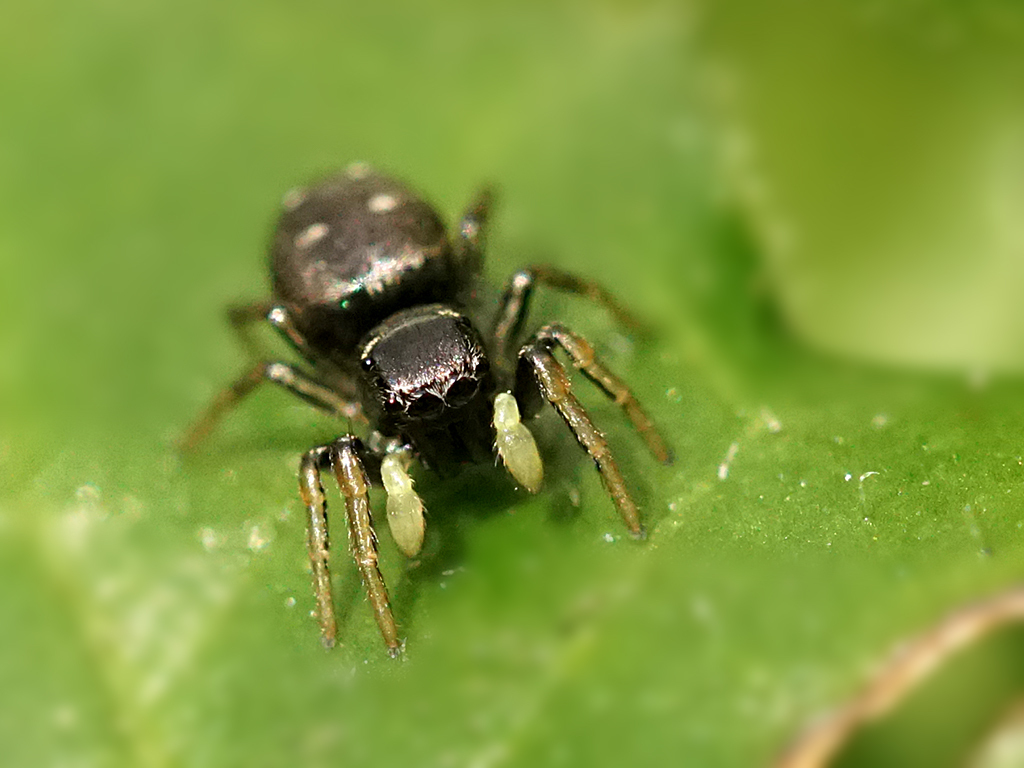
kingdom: Animalia
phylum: Arthropoda
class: Arachnida
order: Araneae
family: Salticidae
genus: Heliophanus
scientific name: Heliophanus cupreus
